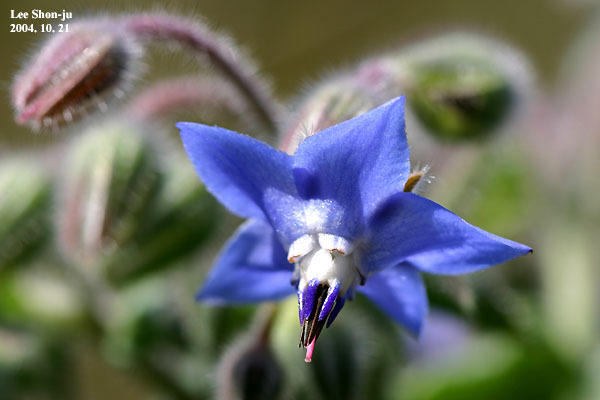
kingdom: Plantae
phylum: Tracheophyta
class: Magnoliopsida
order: Boraginales
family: Boraginaceae
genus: Borago
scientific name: Borago officinalis
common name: Borage
